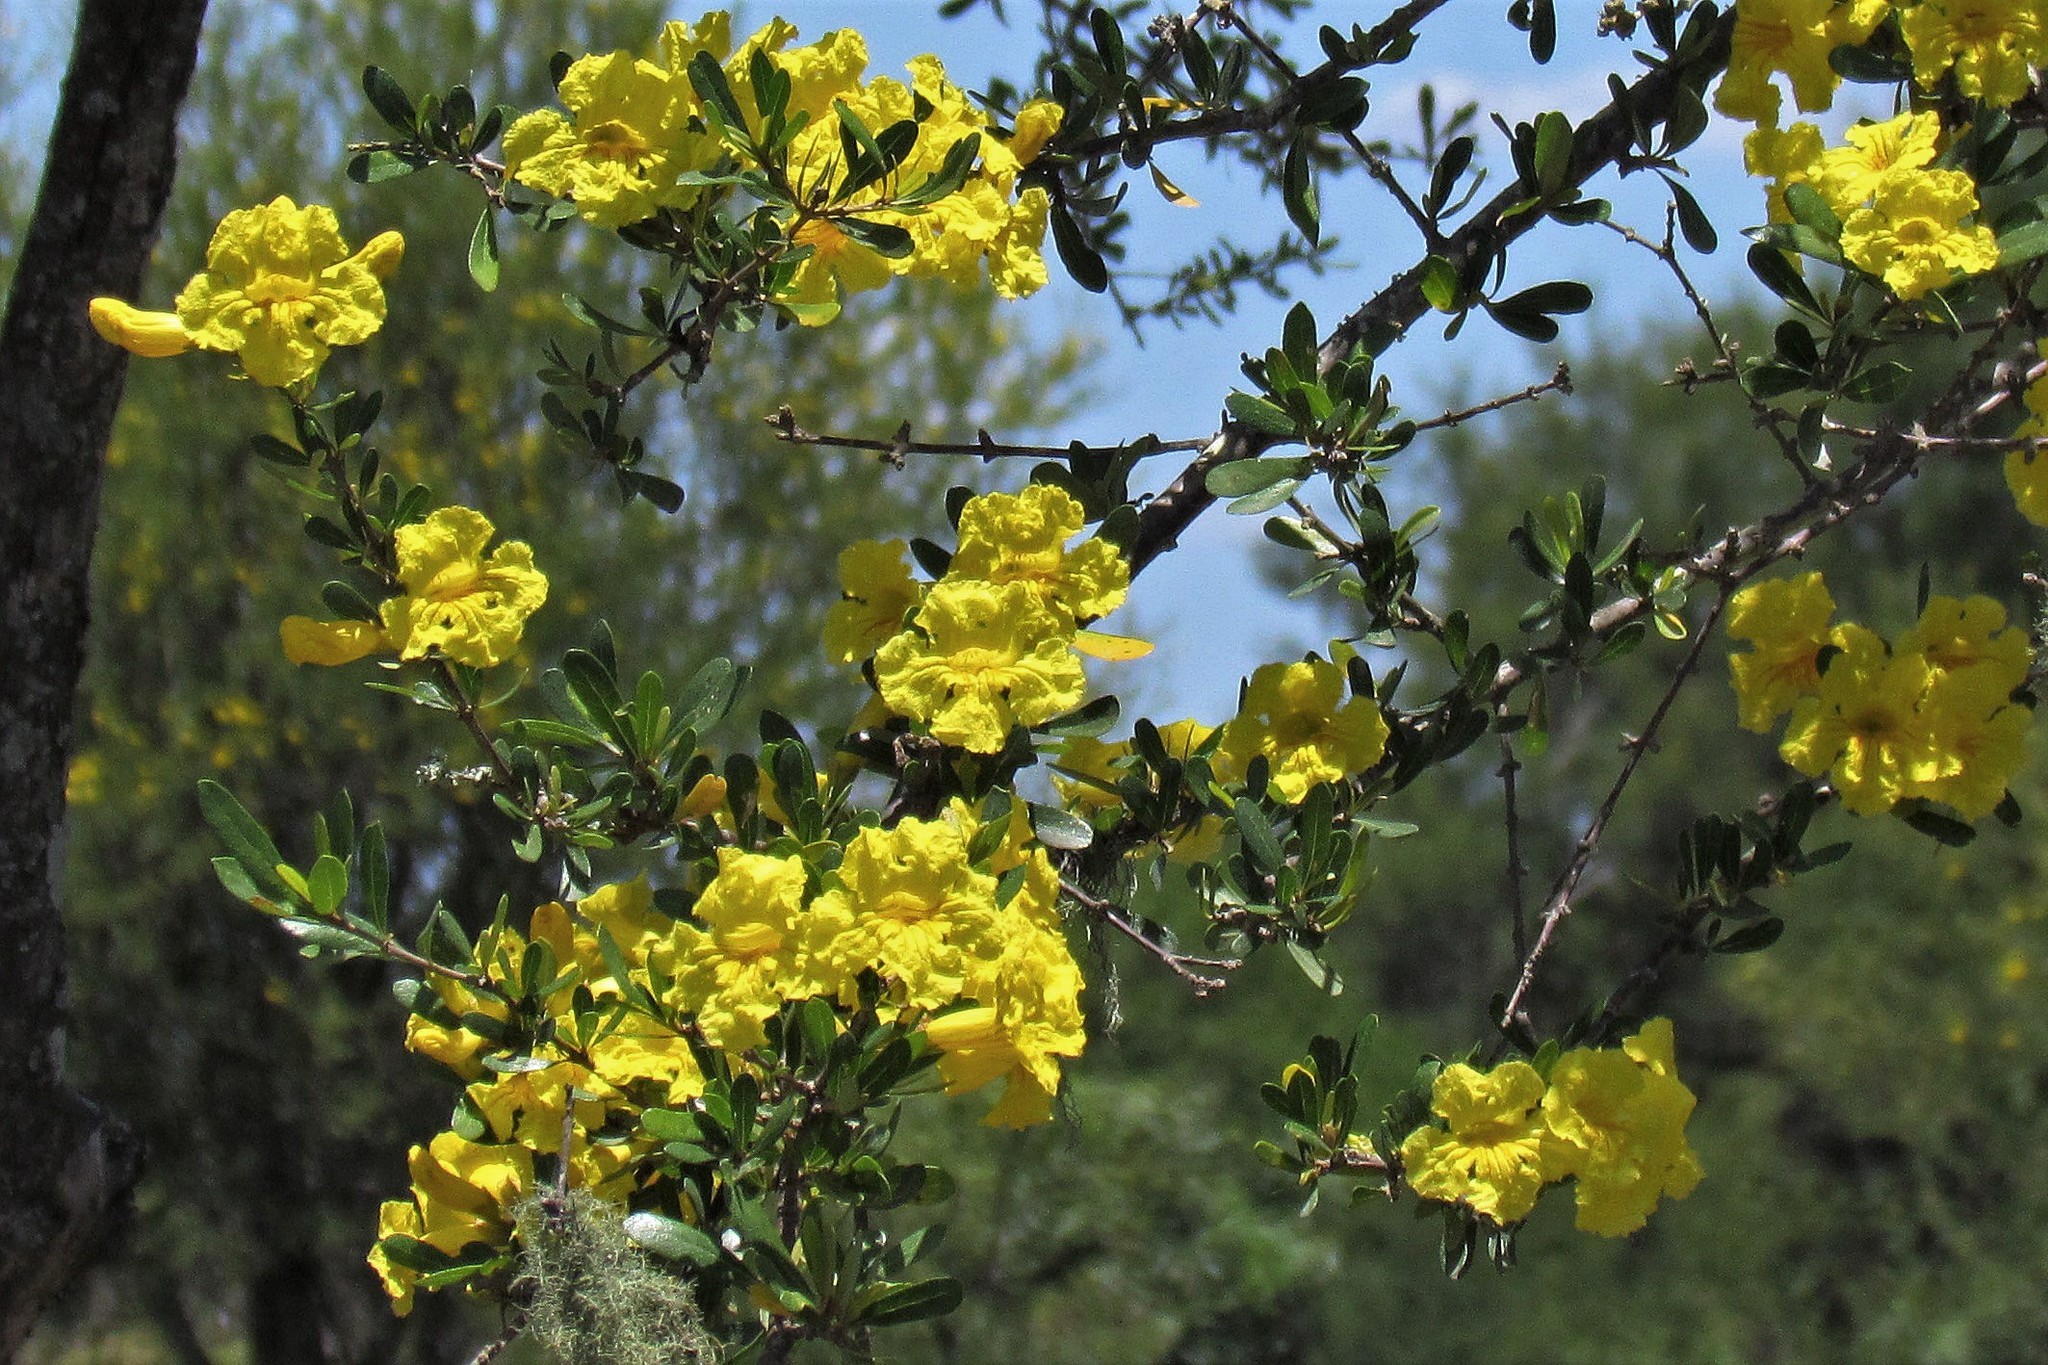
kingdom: Plantae
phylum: Tracheophyta
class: Magnoliopsida
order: Lamiales
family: Bignoniaceae
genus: Tabebuia
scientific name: Tabebuia nodosa
